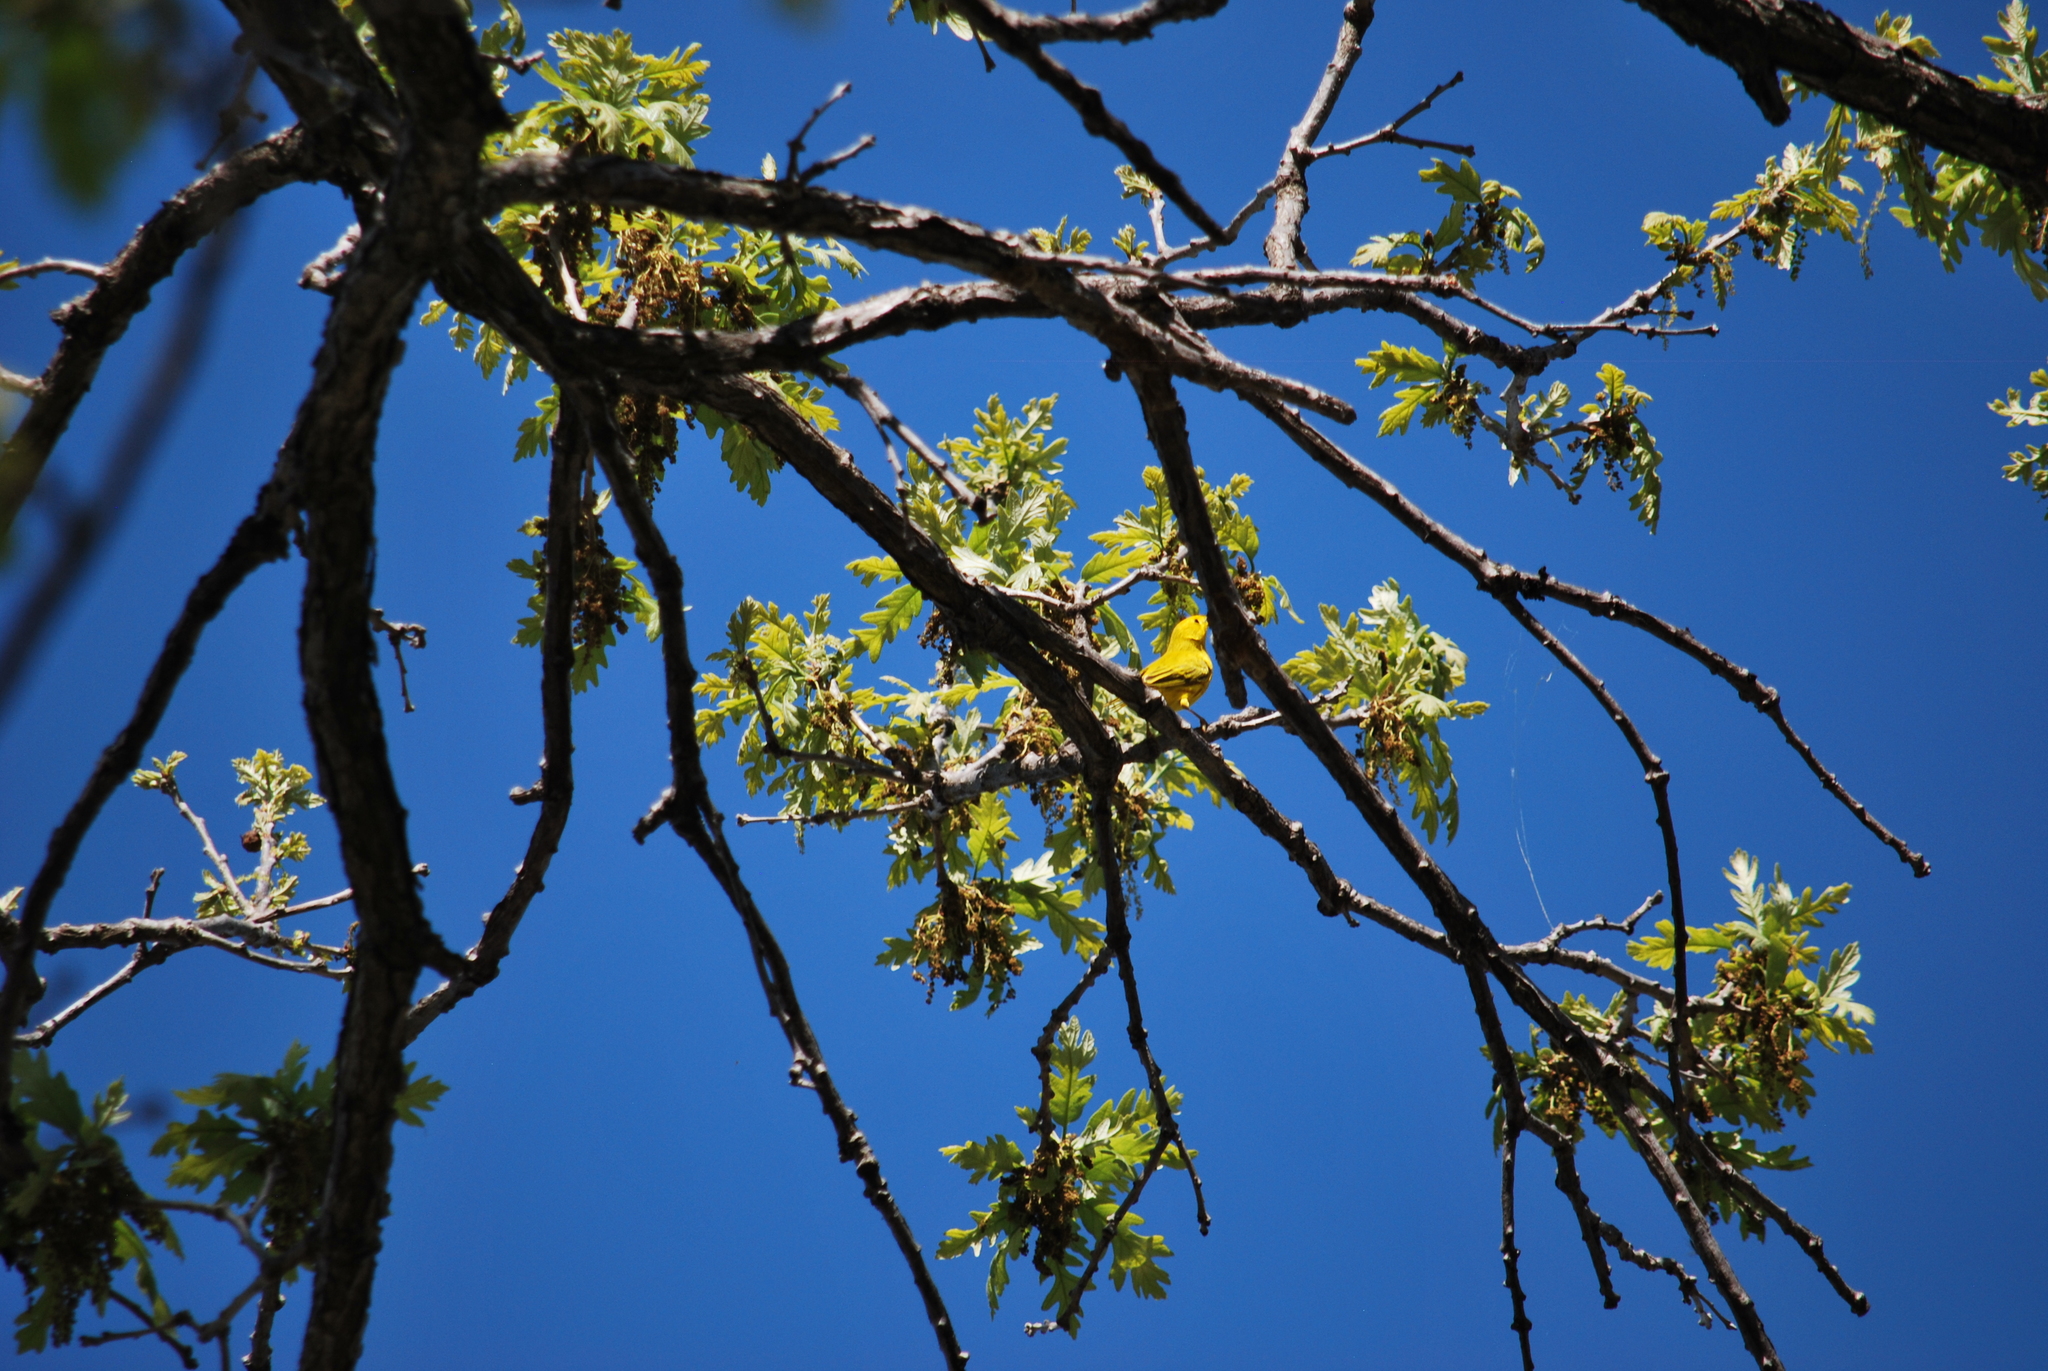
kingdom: Animalia
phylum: Chordata
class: Aves
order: Passeriformes
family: Parulidae
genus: Setophaga
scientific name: Setophaga petechia
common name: Yellow warbler
